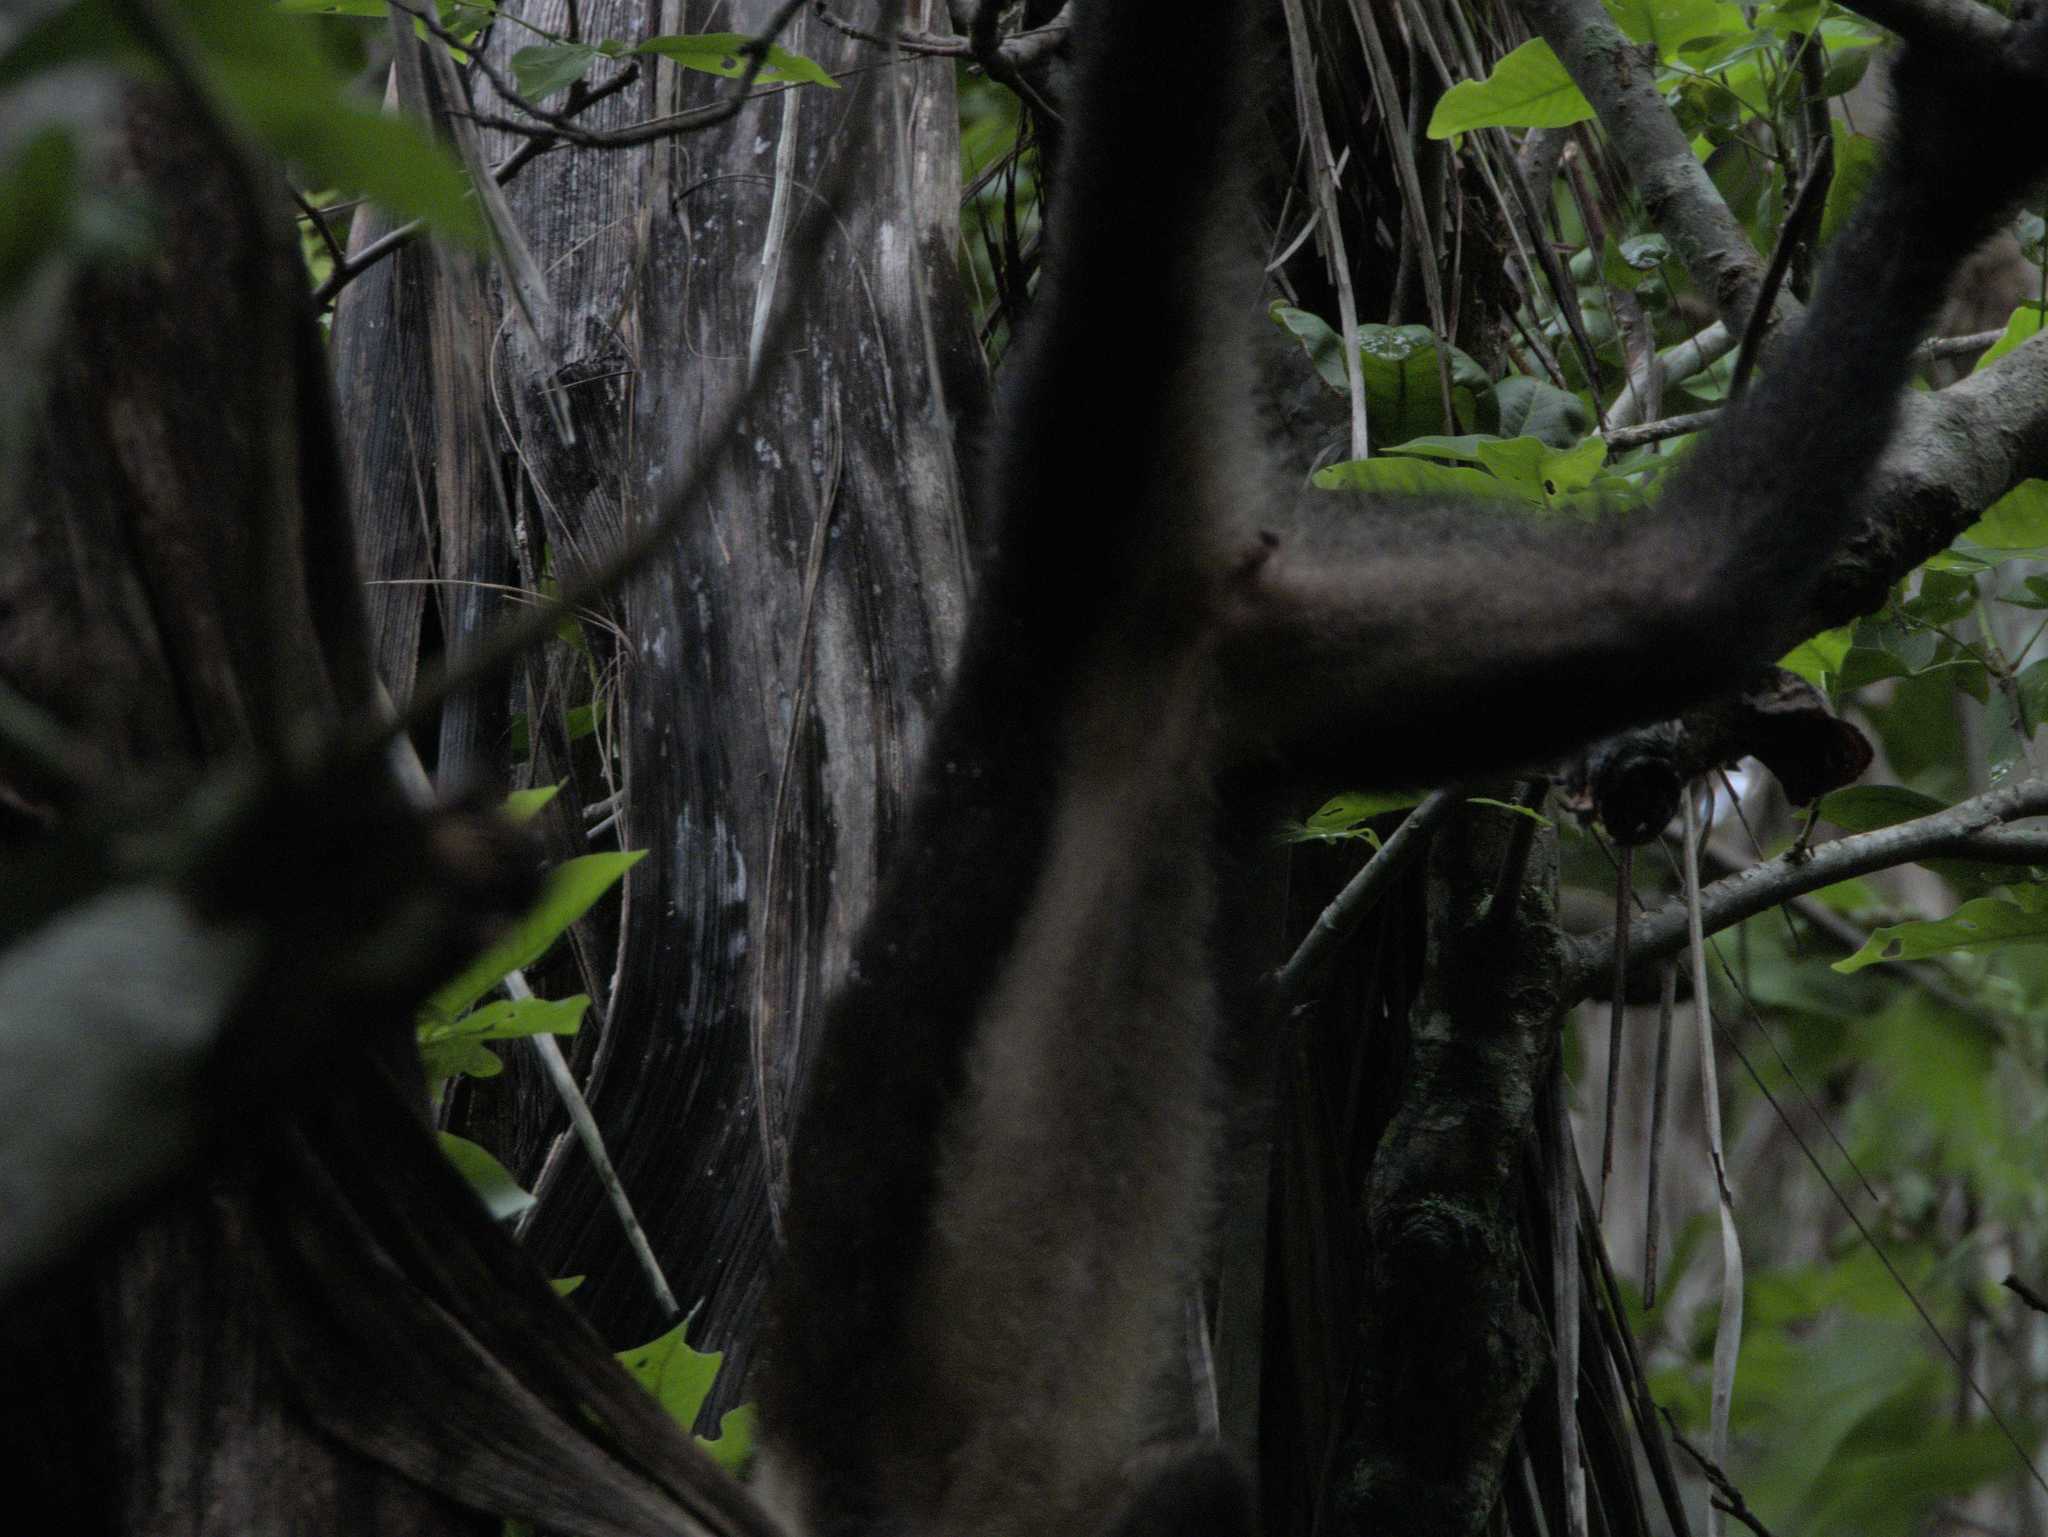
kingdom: Animalia
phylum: Chordata
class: Mammalia
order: Primates
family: Cebidae
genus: Cebus
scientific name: Cebus imitator
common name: Panamanian white-faced capuchin
